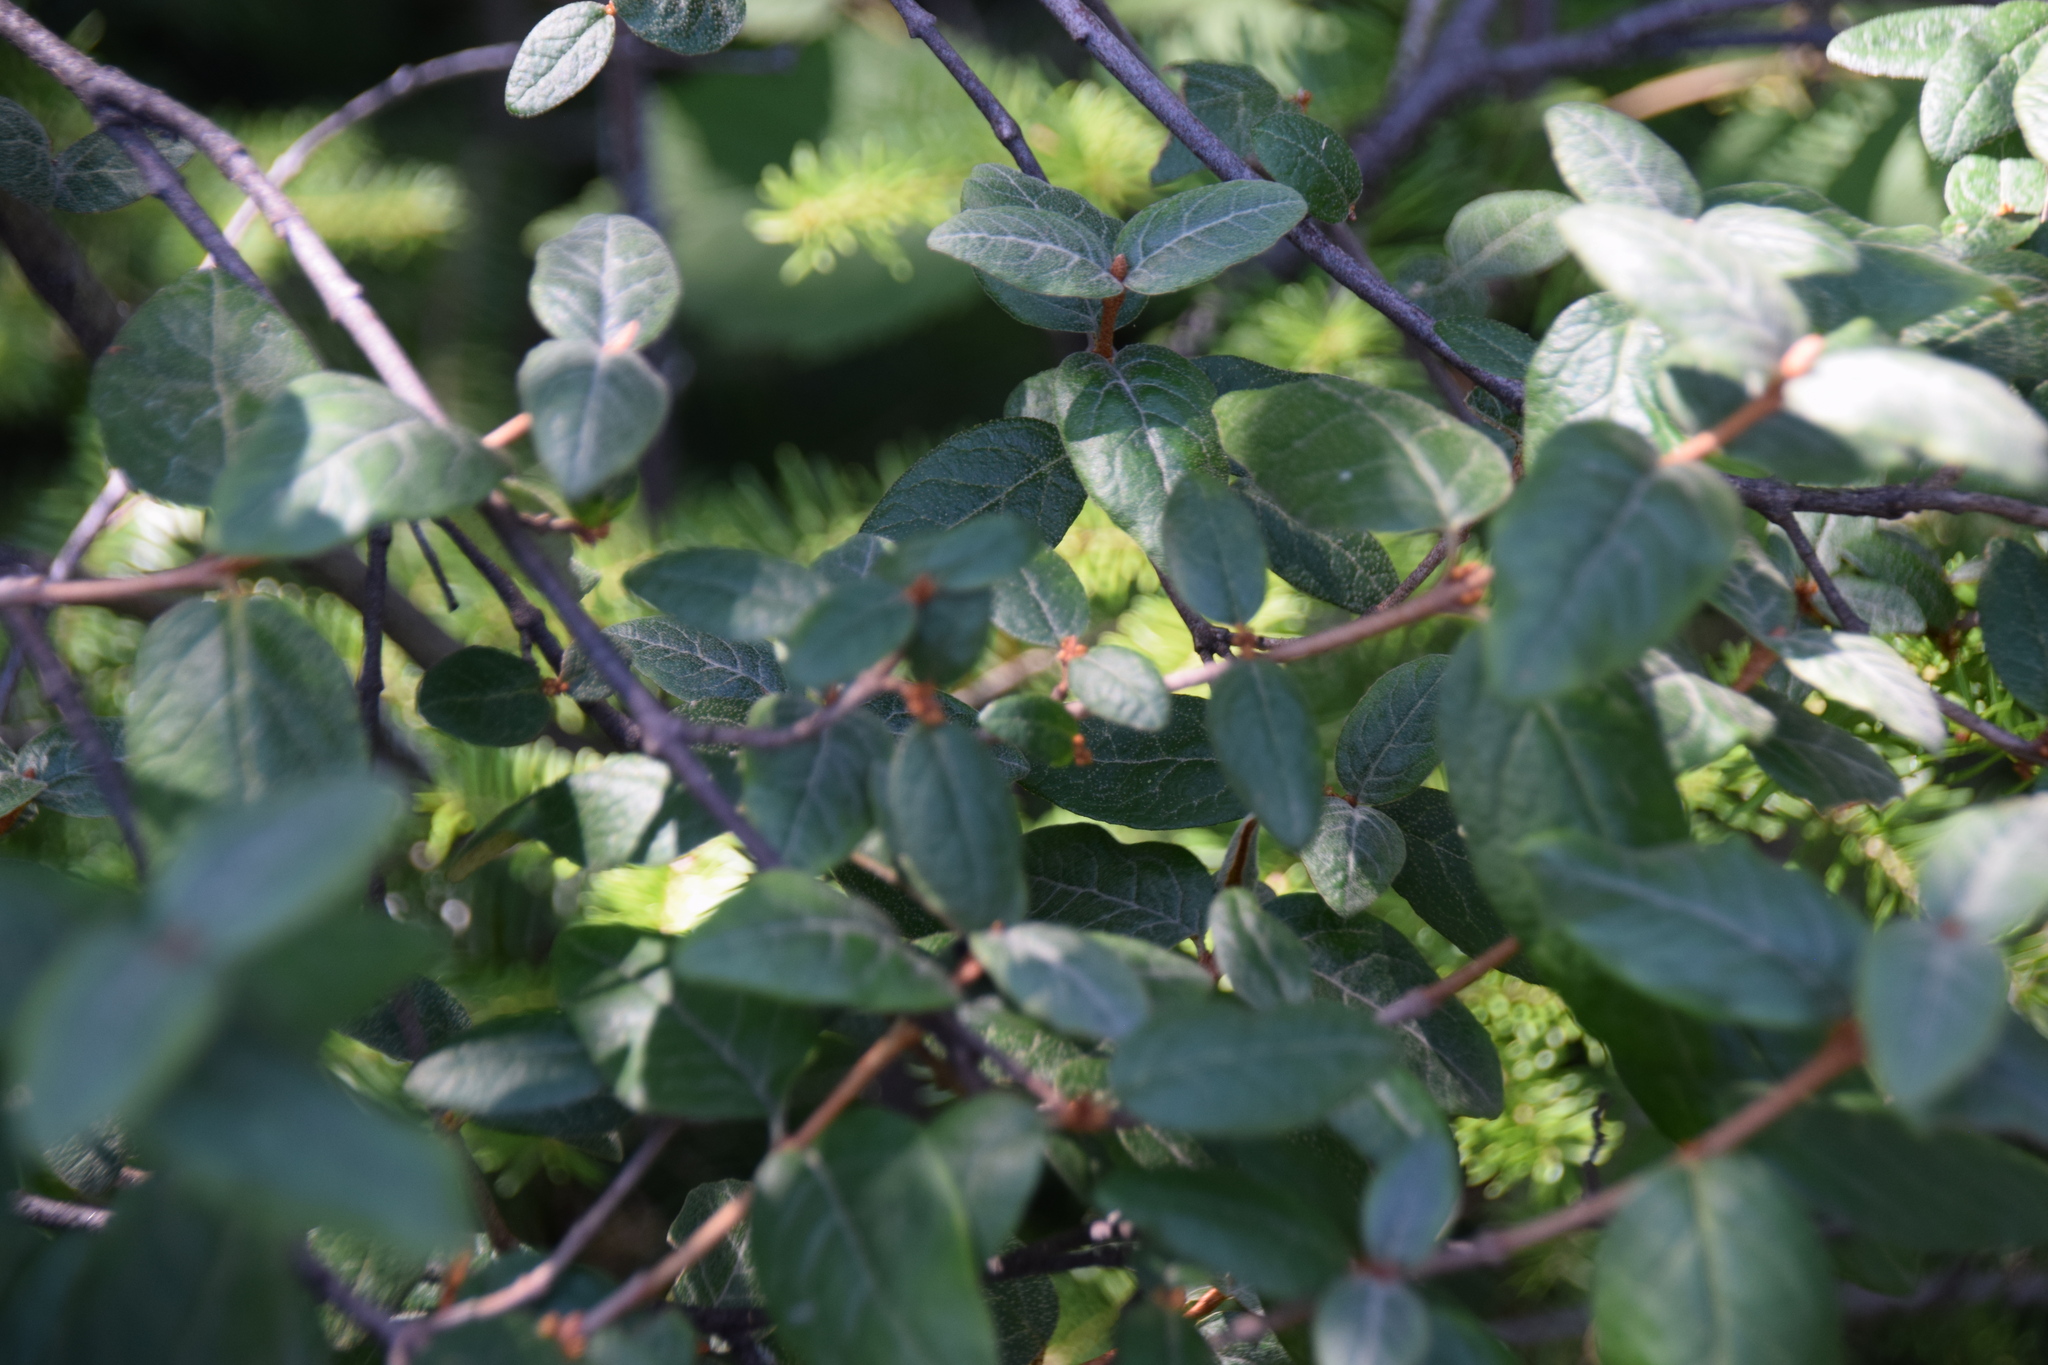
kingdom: Plantae
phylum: Tracheophyta
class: Magnoliopsida
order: Rosales
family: Elaeagnaceae
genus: Shepherdia
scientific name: Shepherdia canadensis
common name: Soapberry
